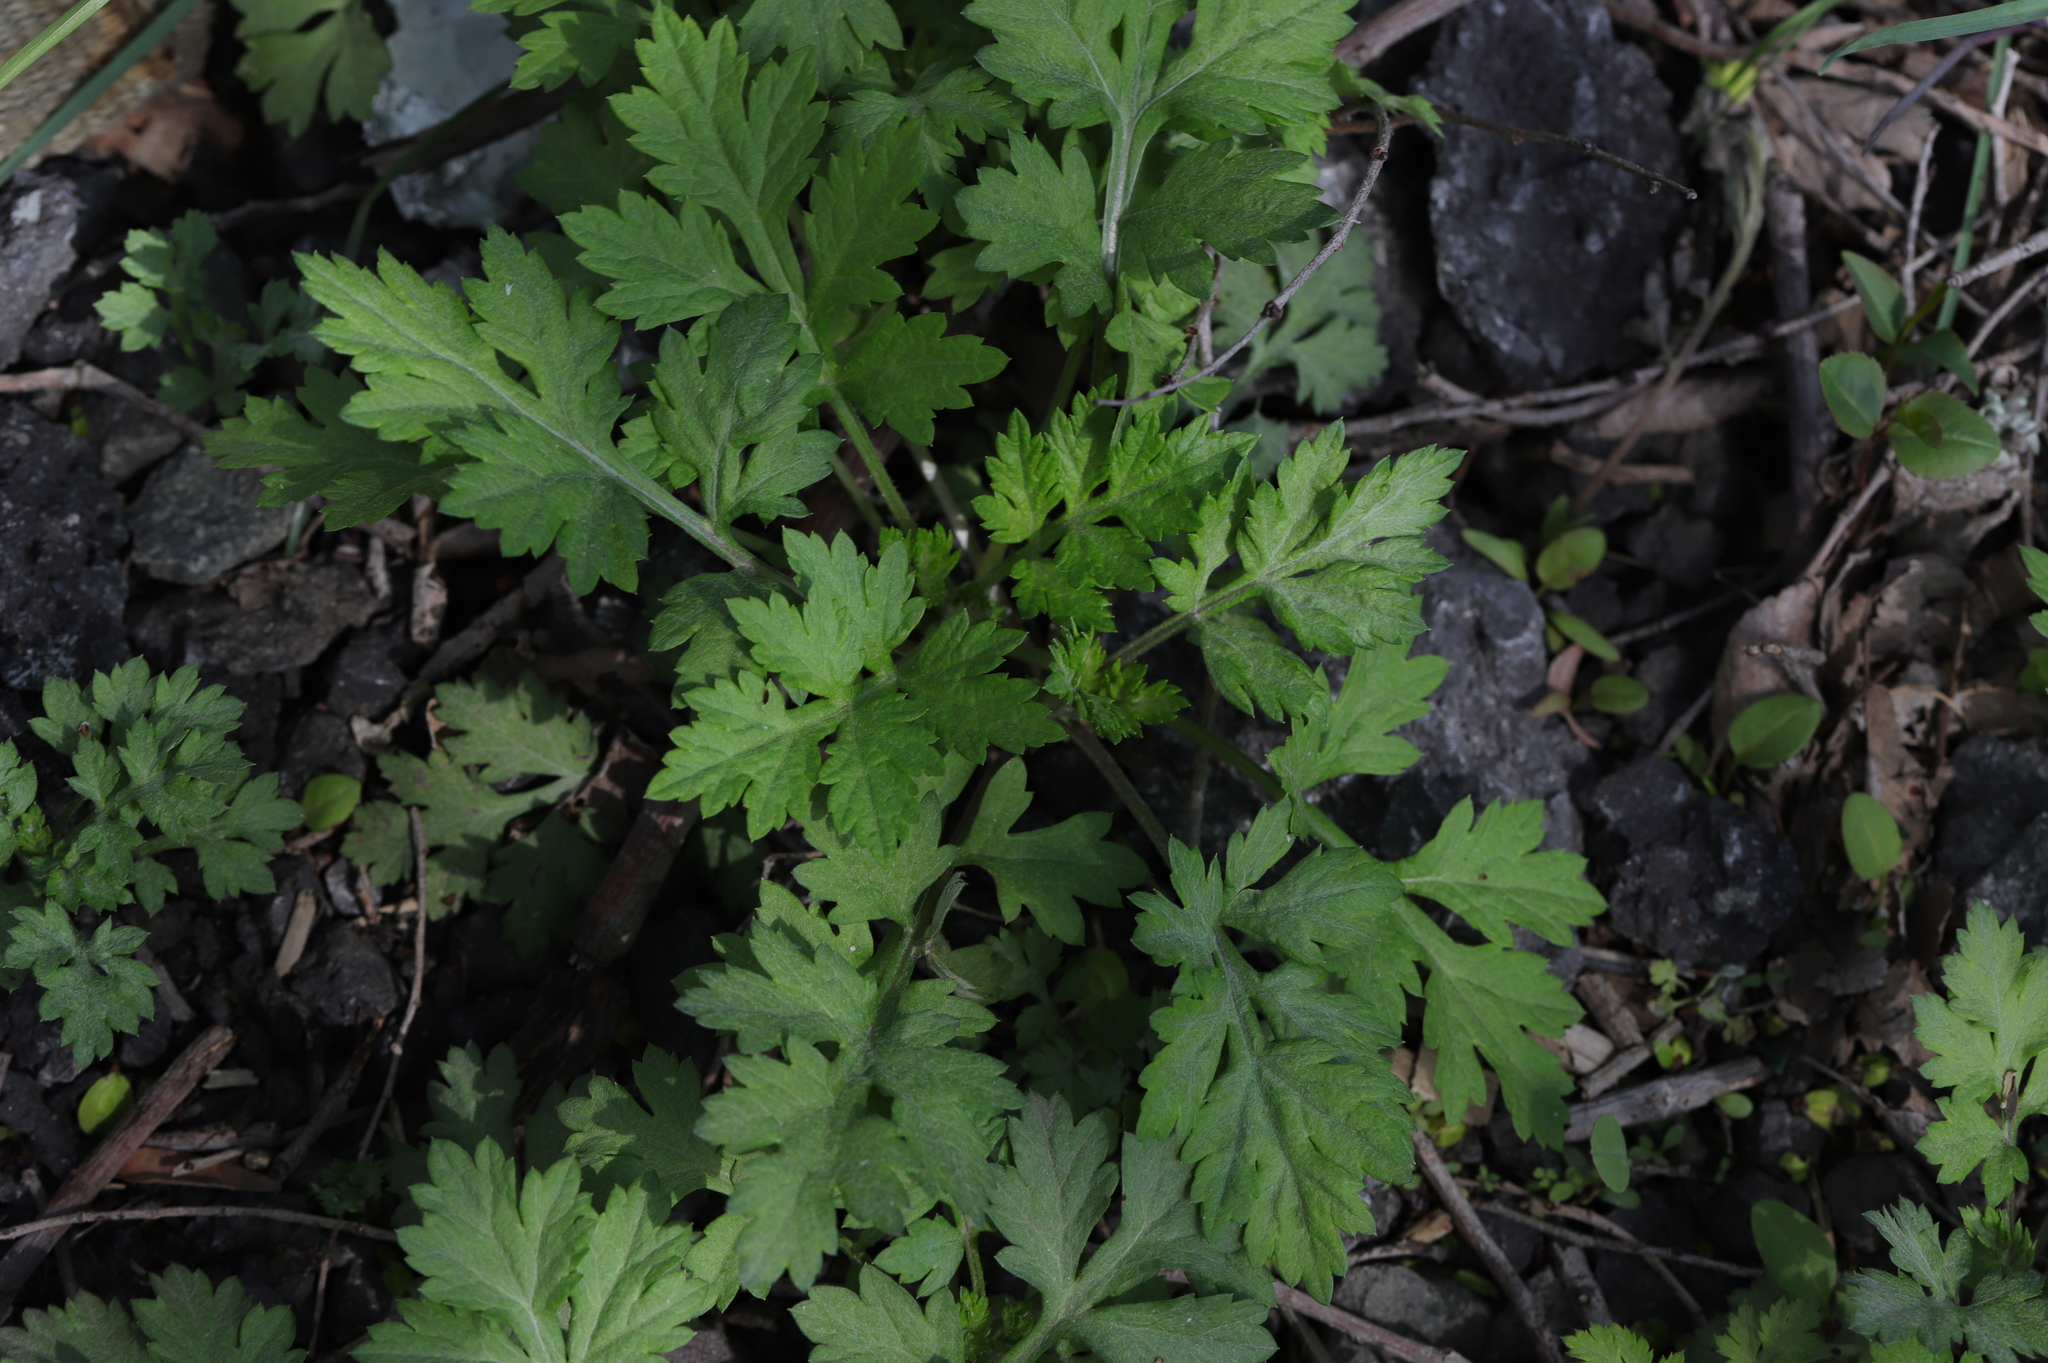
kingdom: Plantae
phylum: Tracheophyta
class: Magnoliopsida
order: Asterales
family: Asteraceae
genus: Artemisia
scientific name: Artemisia vulgaris
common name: Mugwort
